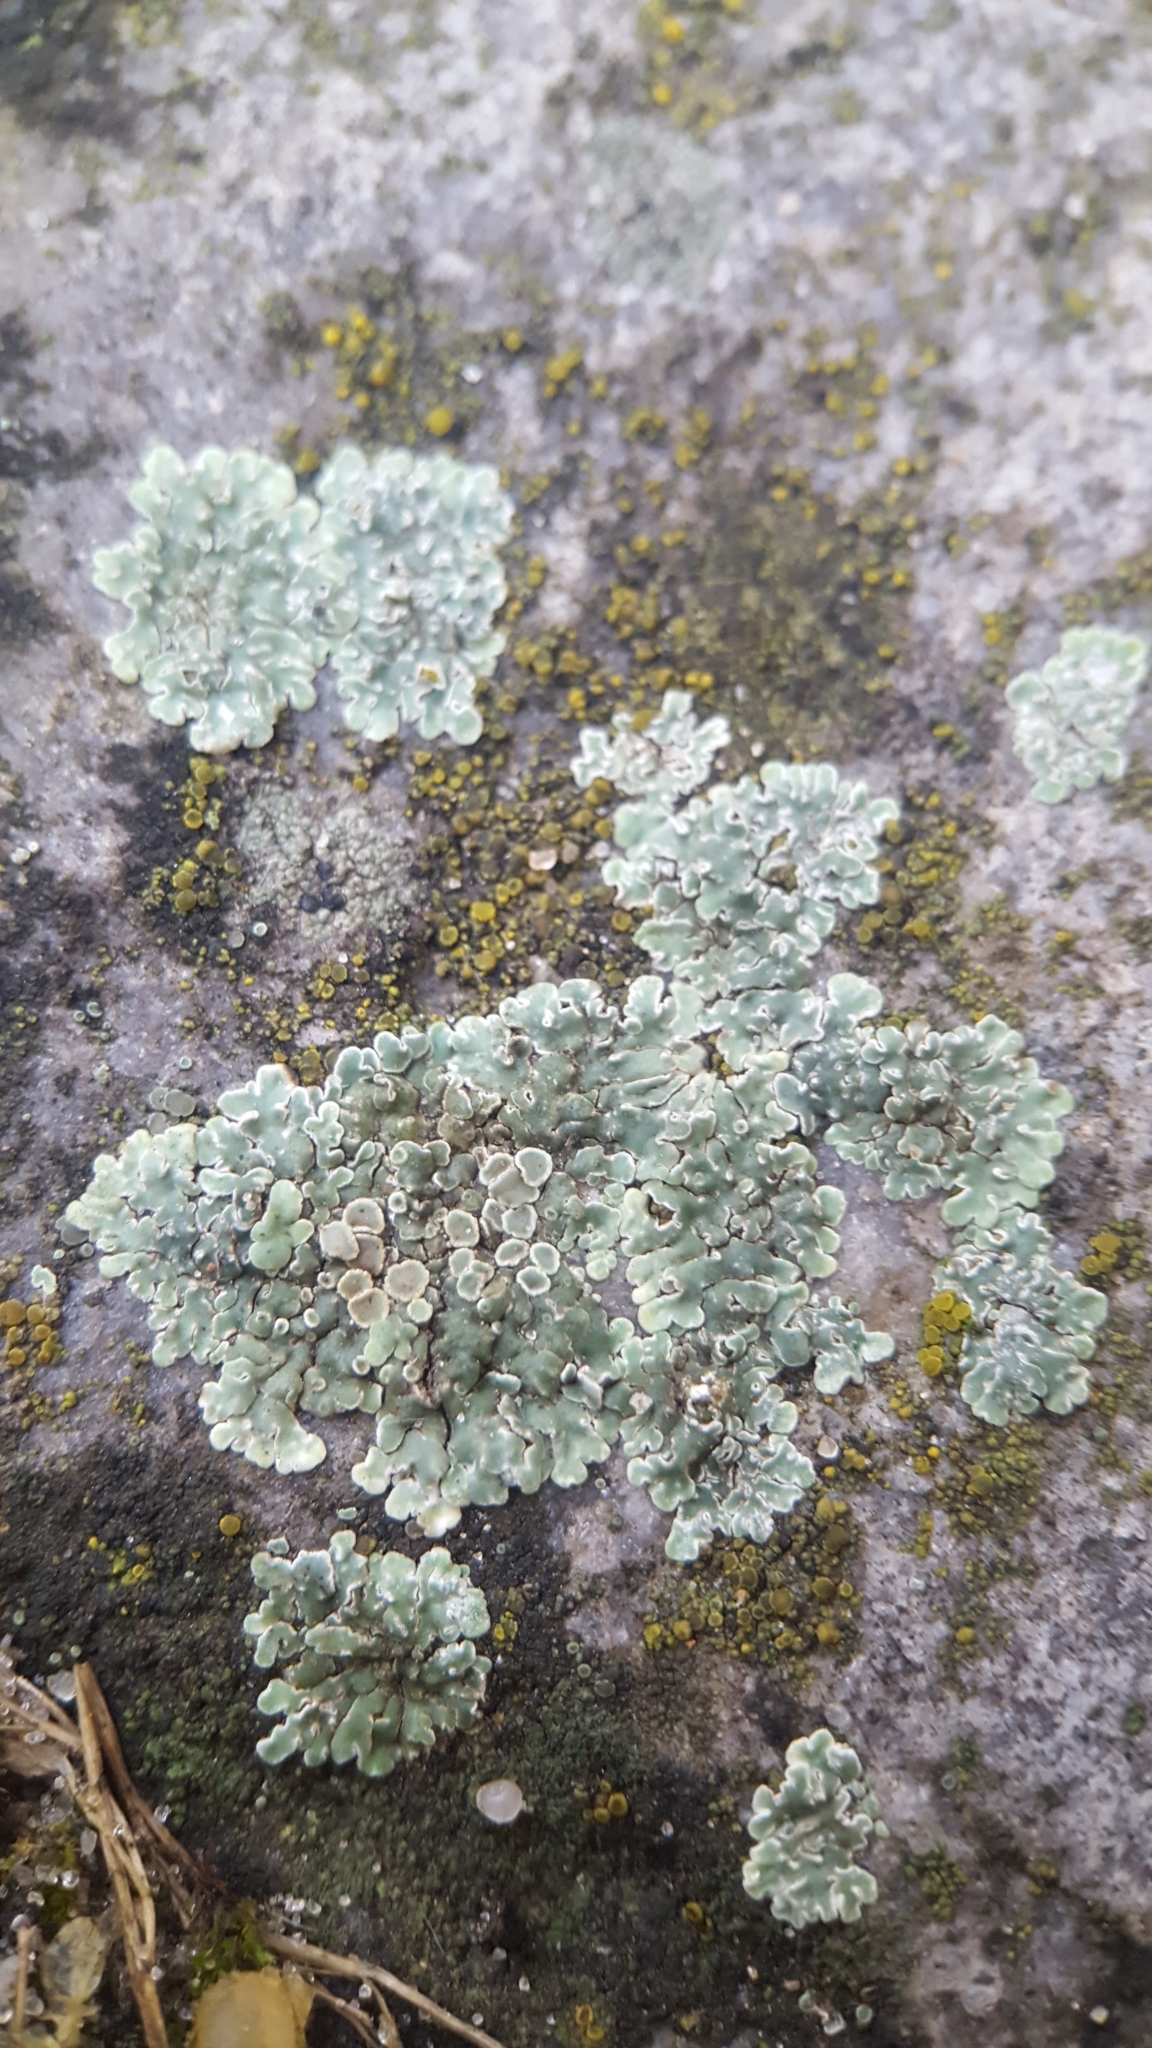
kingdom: Fungi
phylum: Ascomycota
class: Lecanoromycetes
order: Lecanorales
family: Lecanoraceae
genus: Protoparmeliopsis
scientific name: Protoparmeliopsis muralis
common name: Stonewall rim lichen
